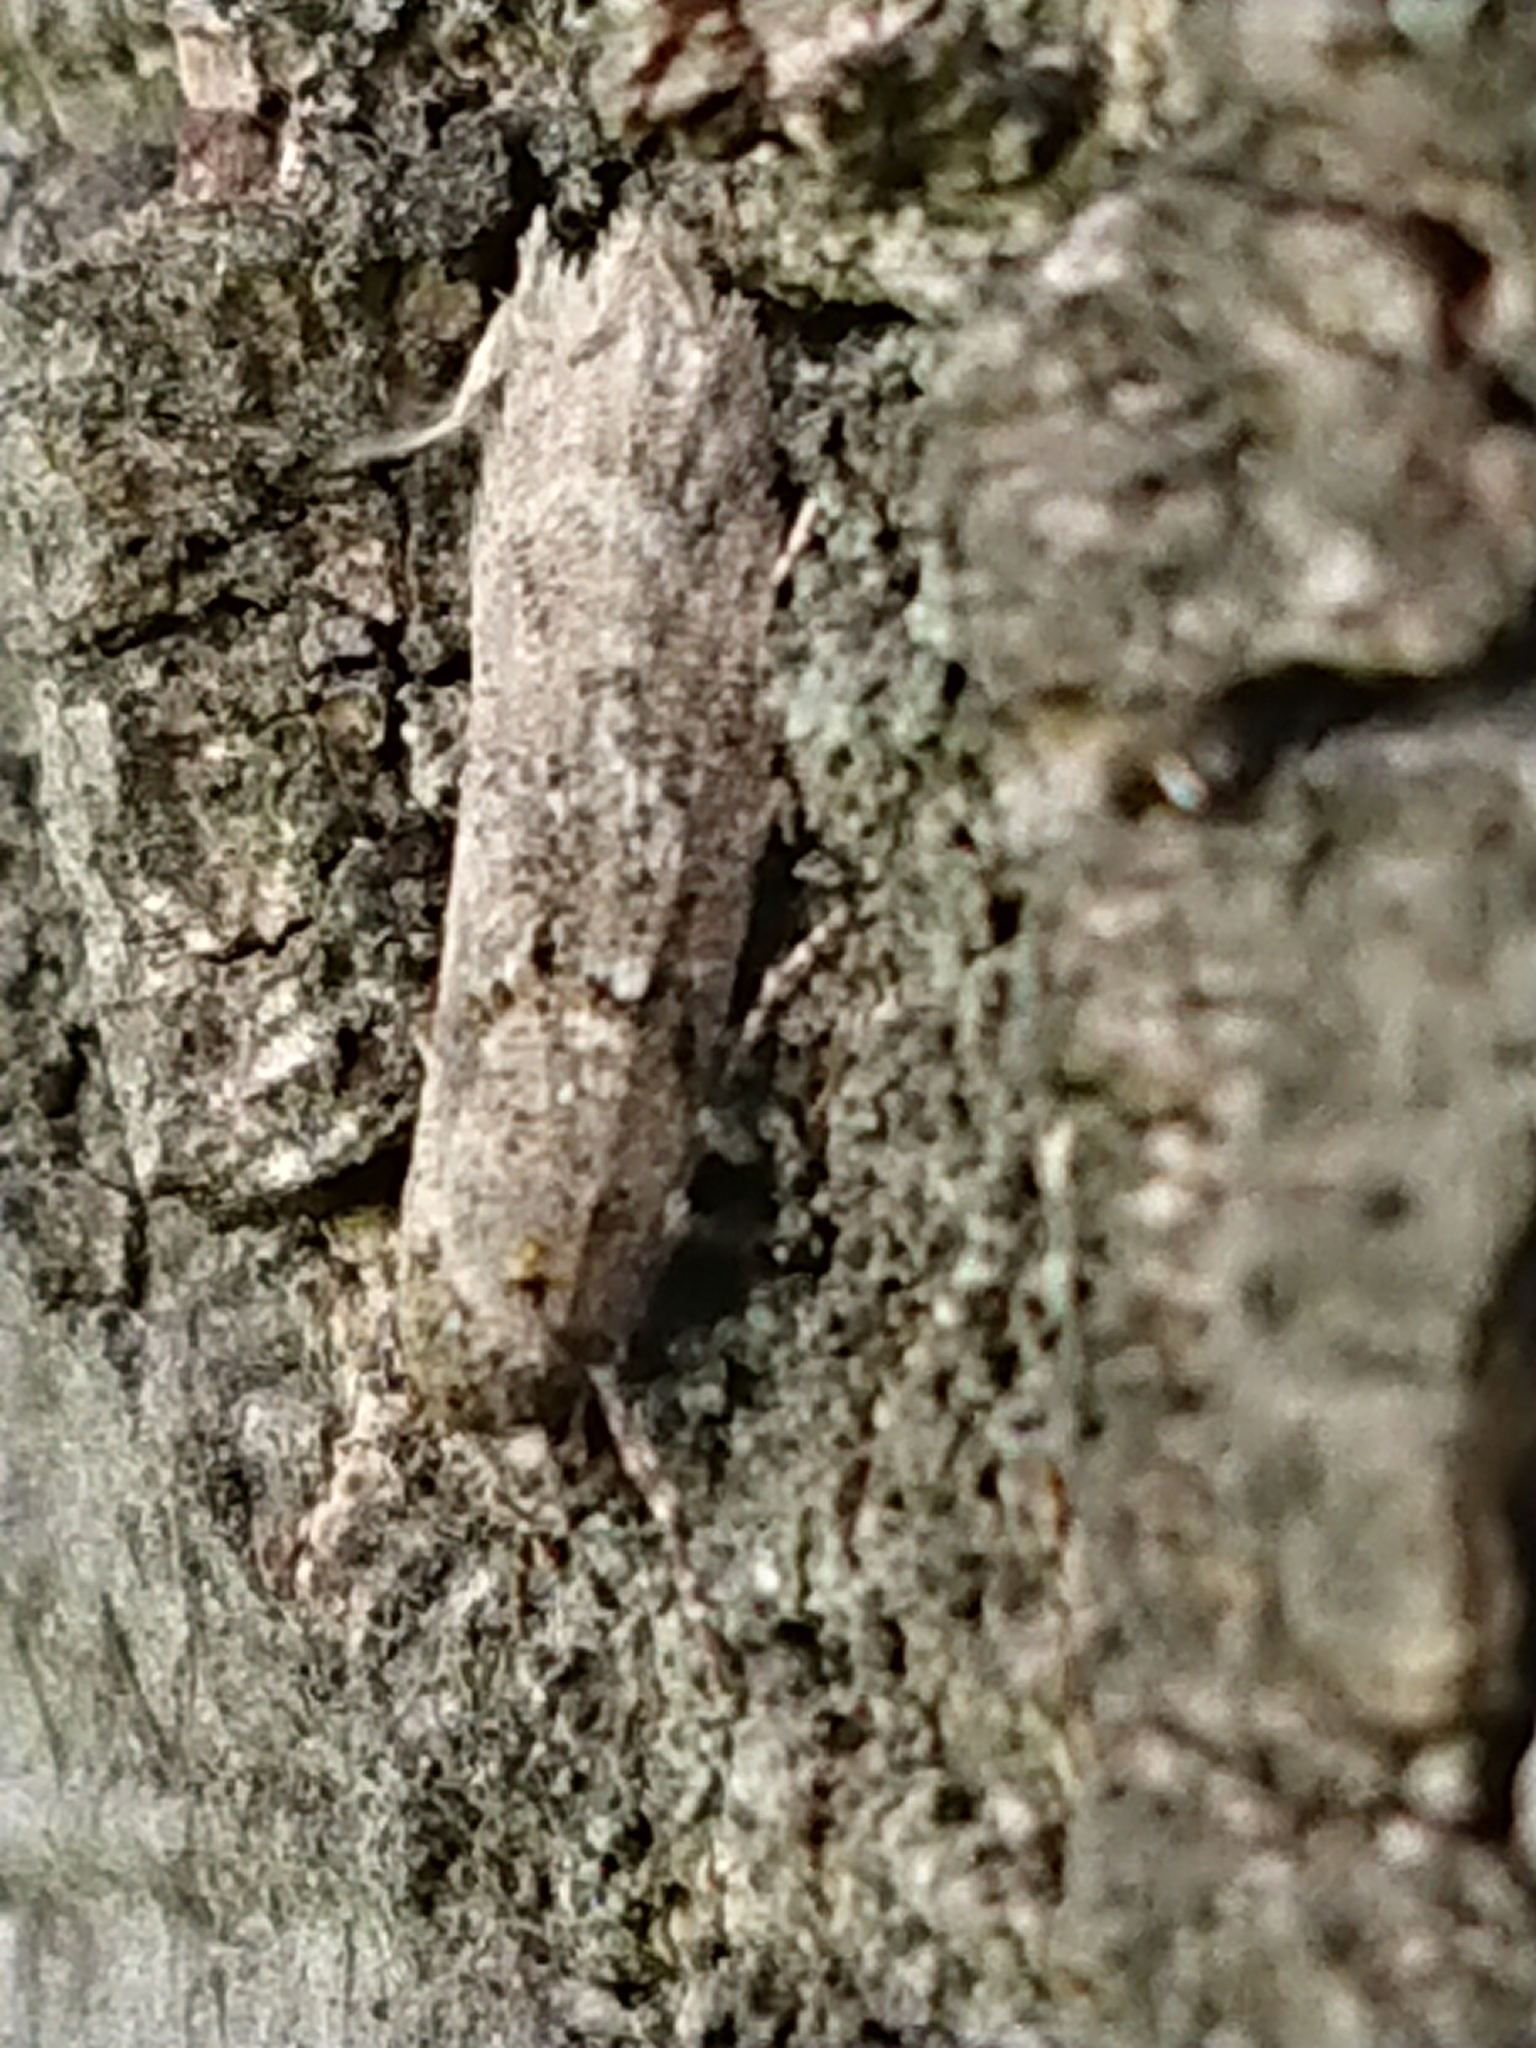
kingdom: Animalia
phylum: Arthropoda
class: Insecta
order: Lepidoptera
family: Oecophoridae
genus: Izatha
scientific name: Izatha convulsella
